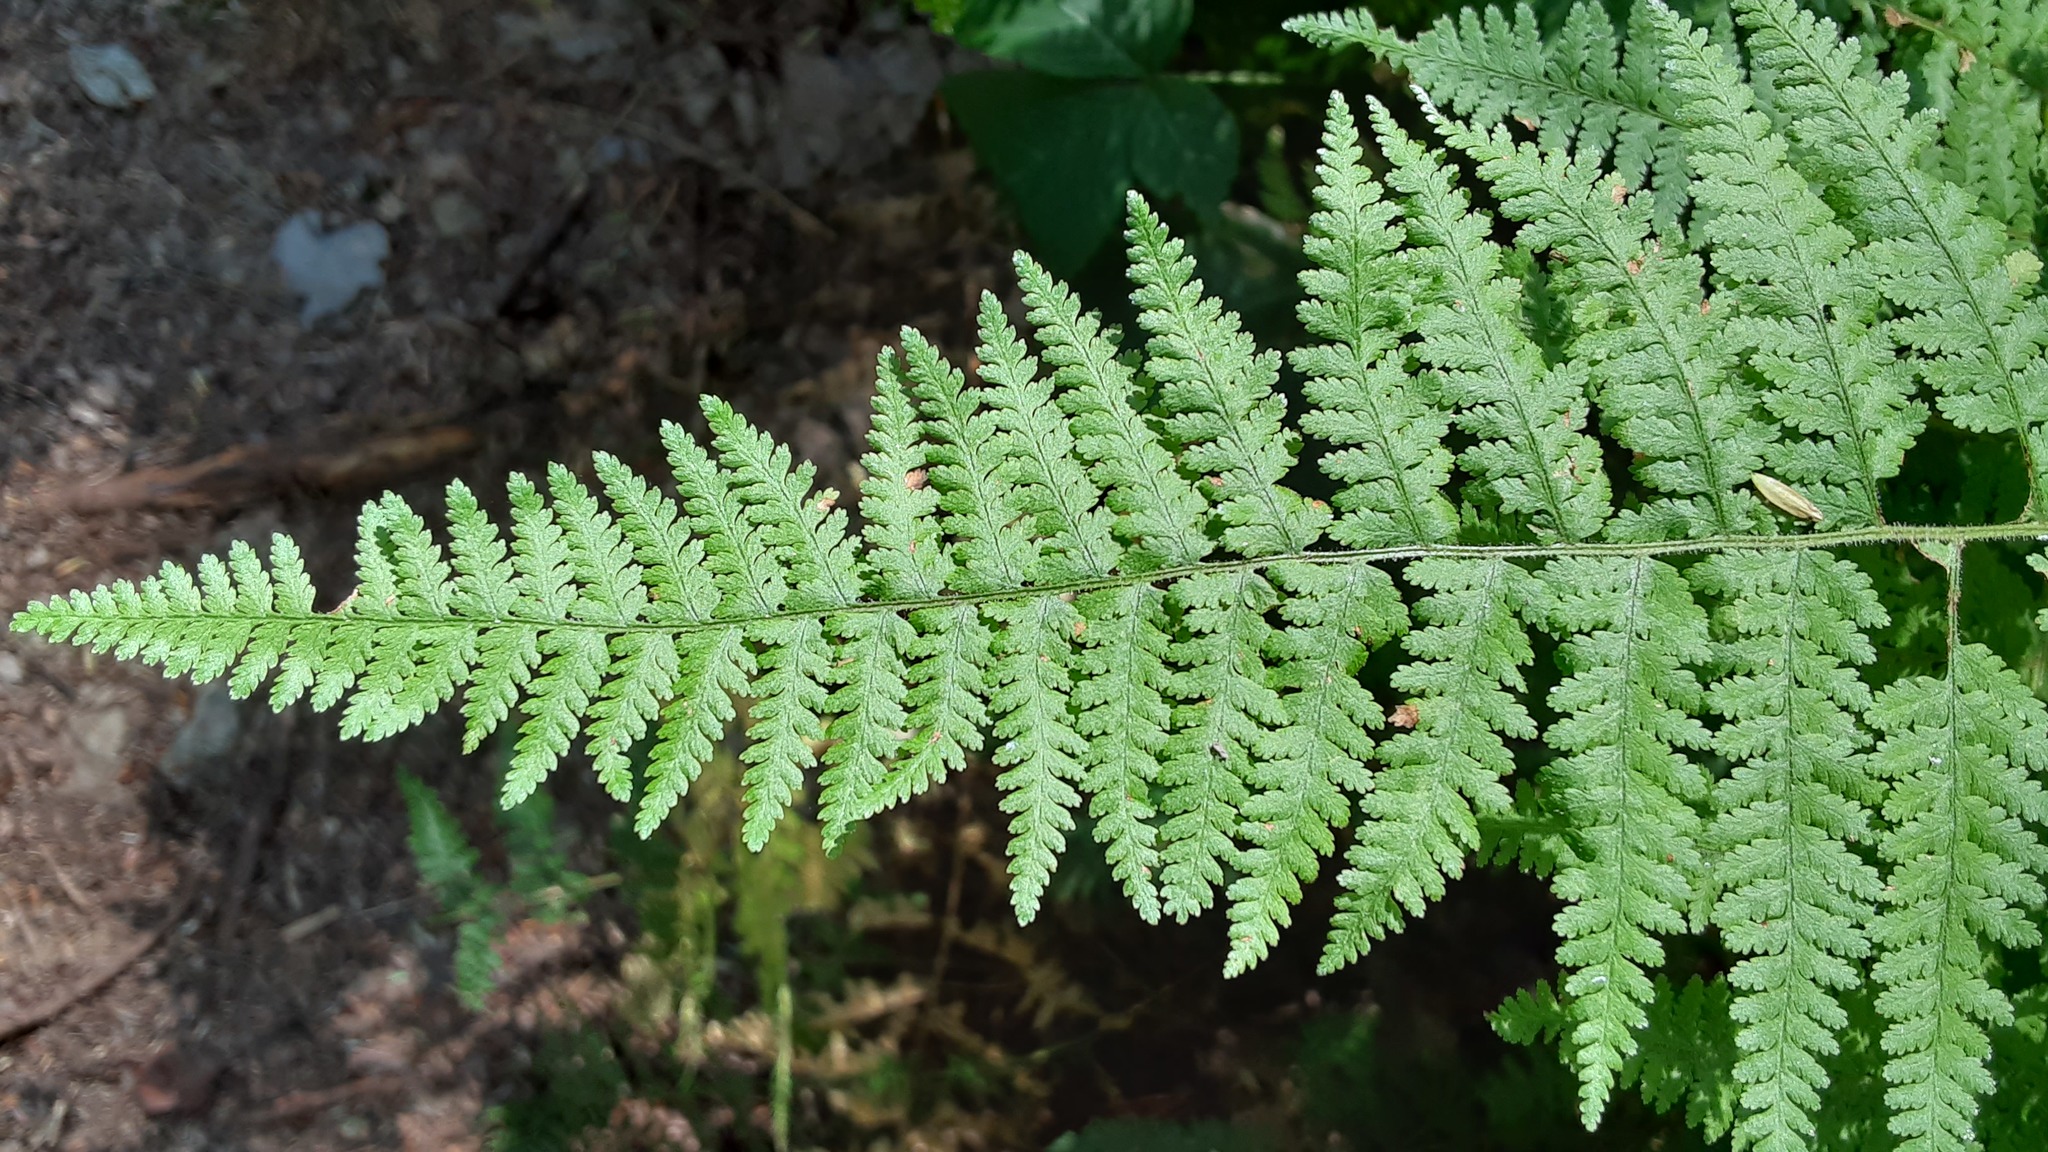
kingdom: Plantae
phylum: Tracheophyta
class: Polypodiopsida
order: Polypodiales
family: Dennstaedtiaceae
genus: Sitobolium
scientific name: Sitobolium punctilobum
